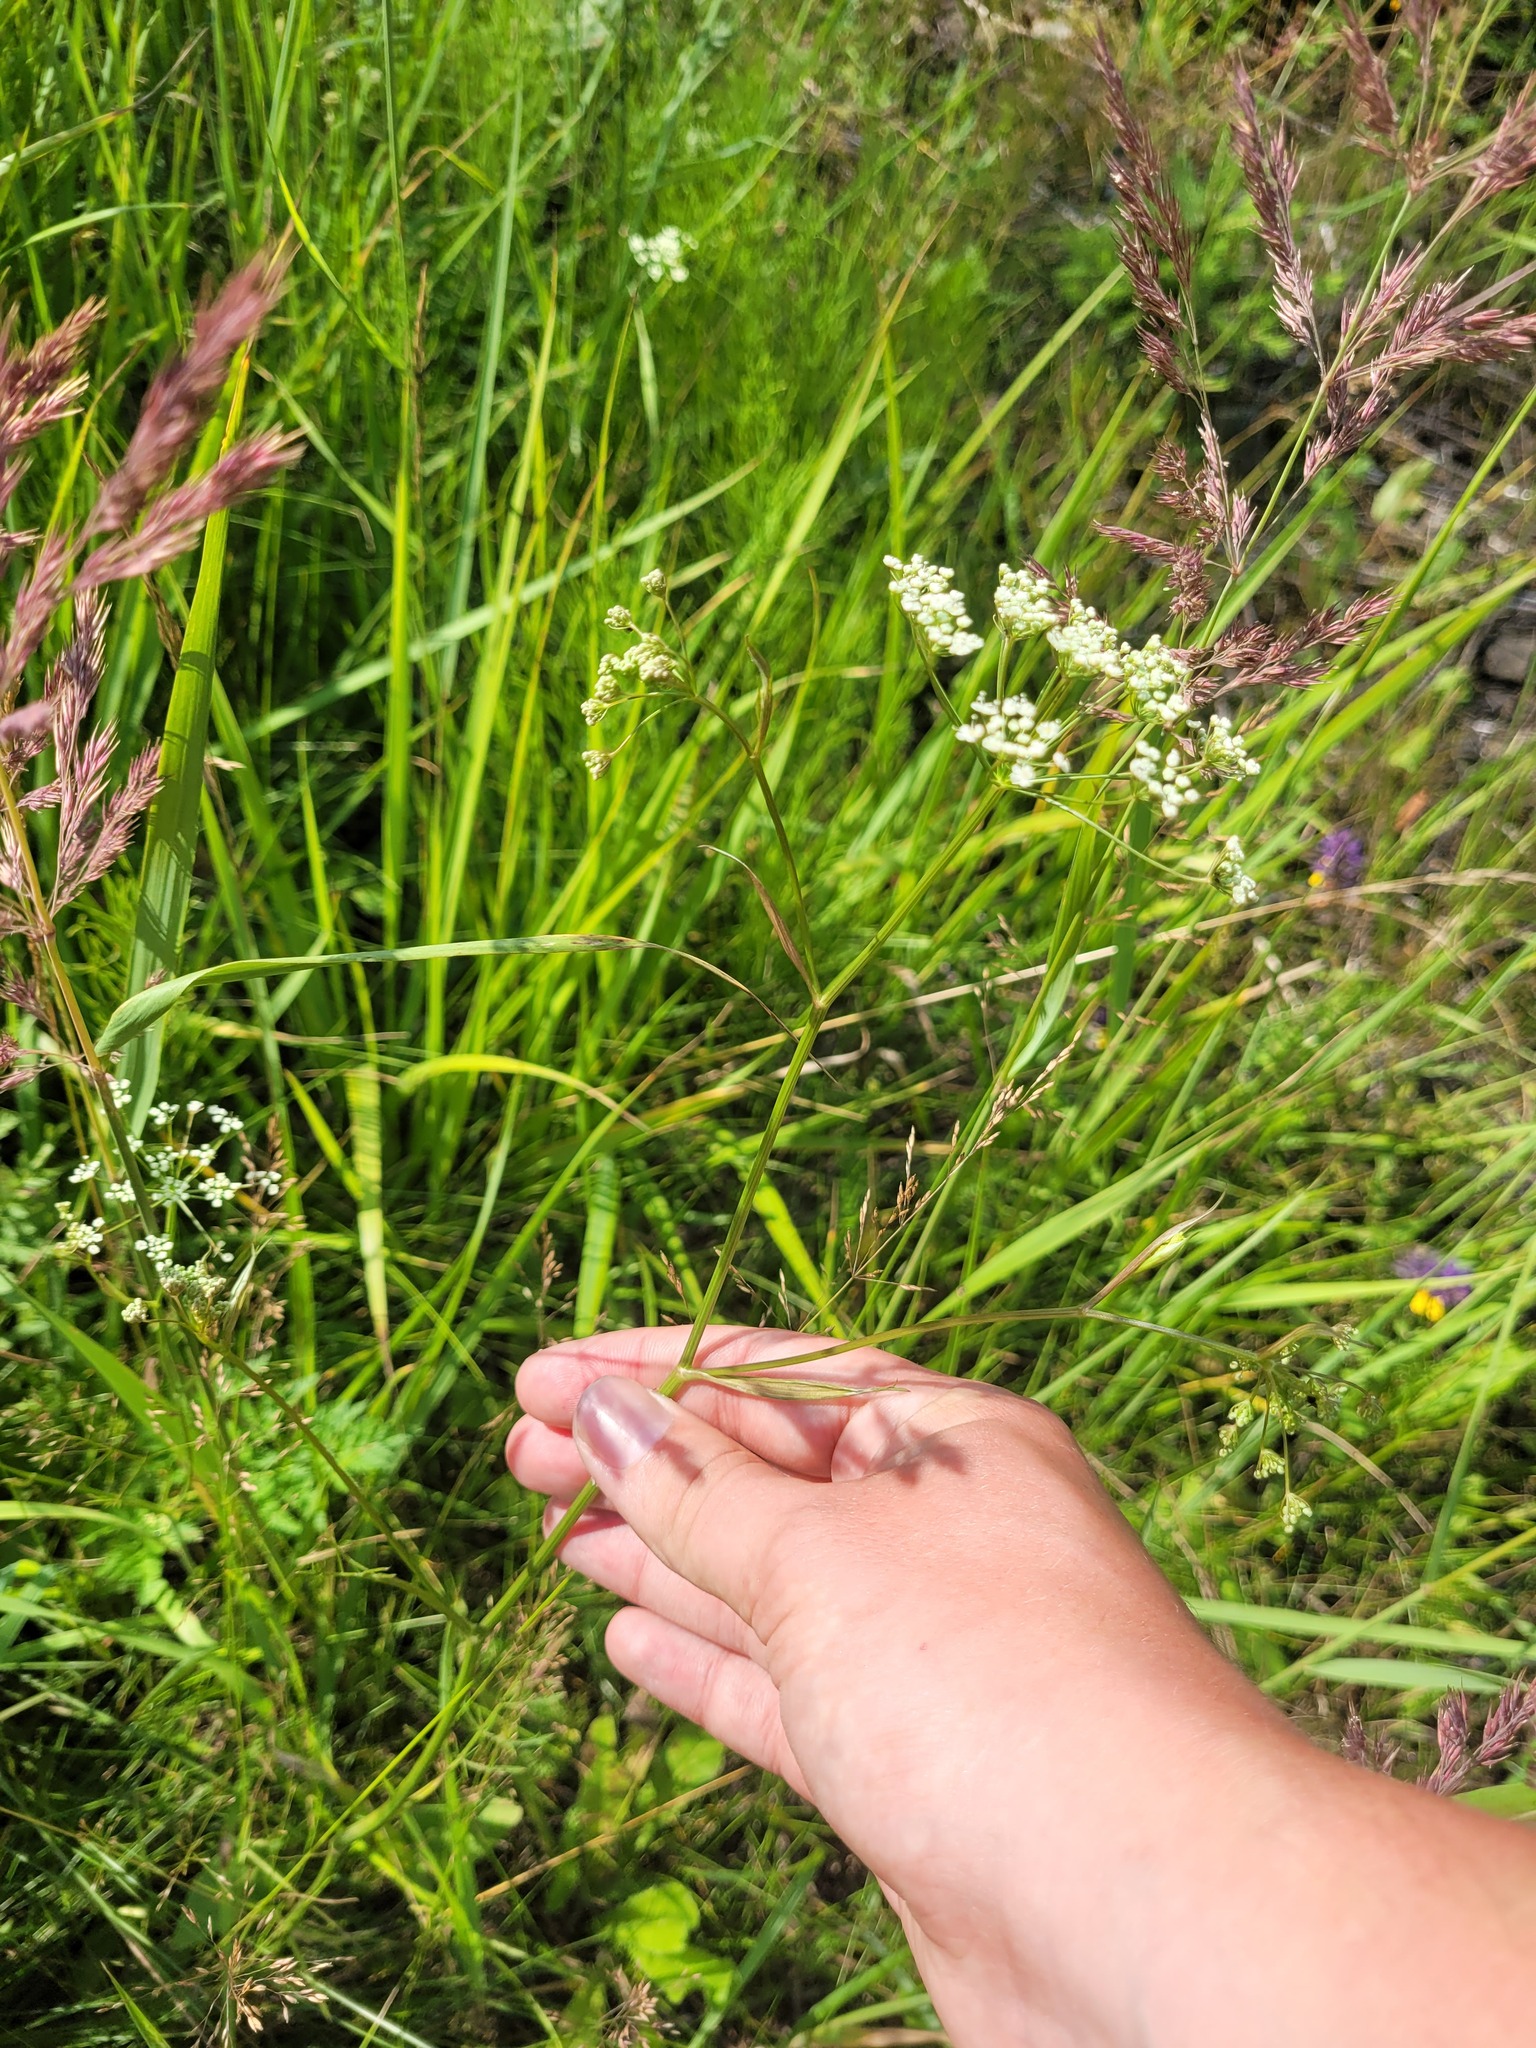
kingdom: Plantae
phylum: Tracheophyta
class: Magnoliopsida
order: Apiales
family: Apiaceae
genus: Pimpinella
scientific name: Pimpinella saxifraga
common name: Burnet-saxifrage
